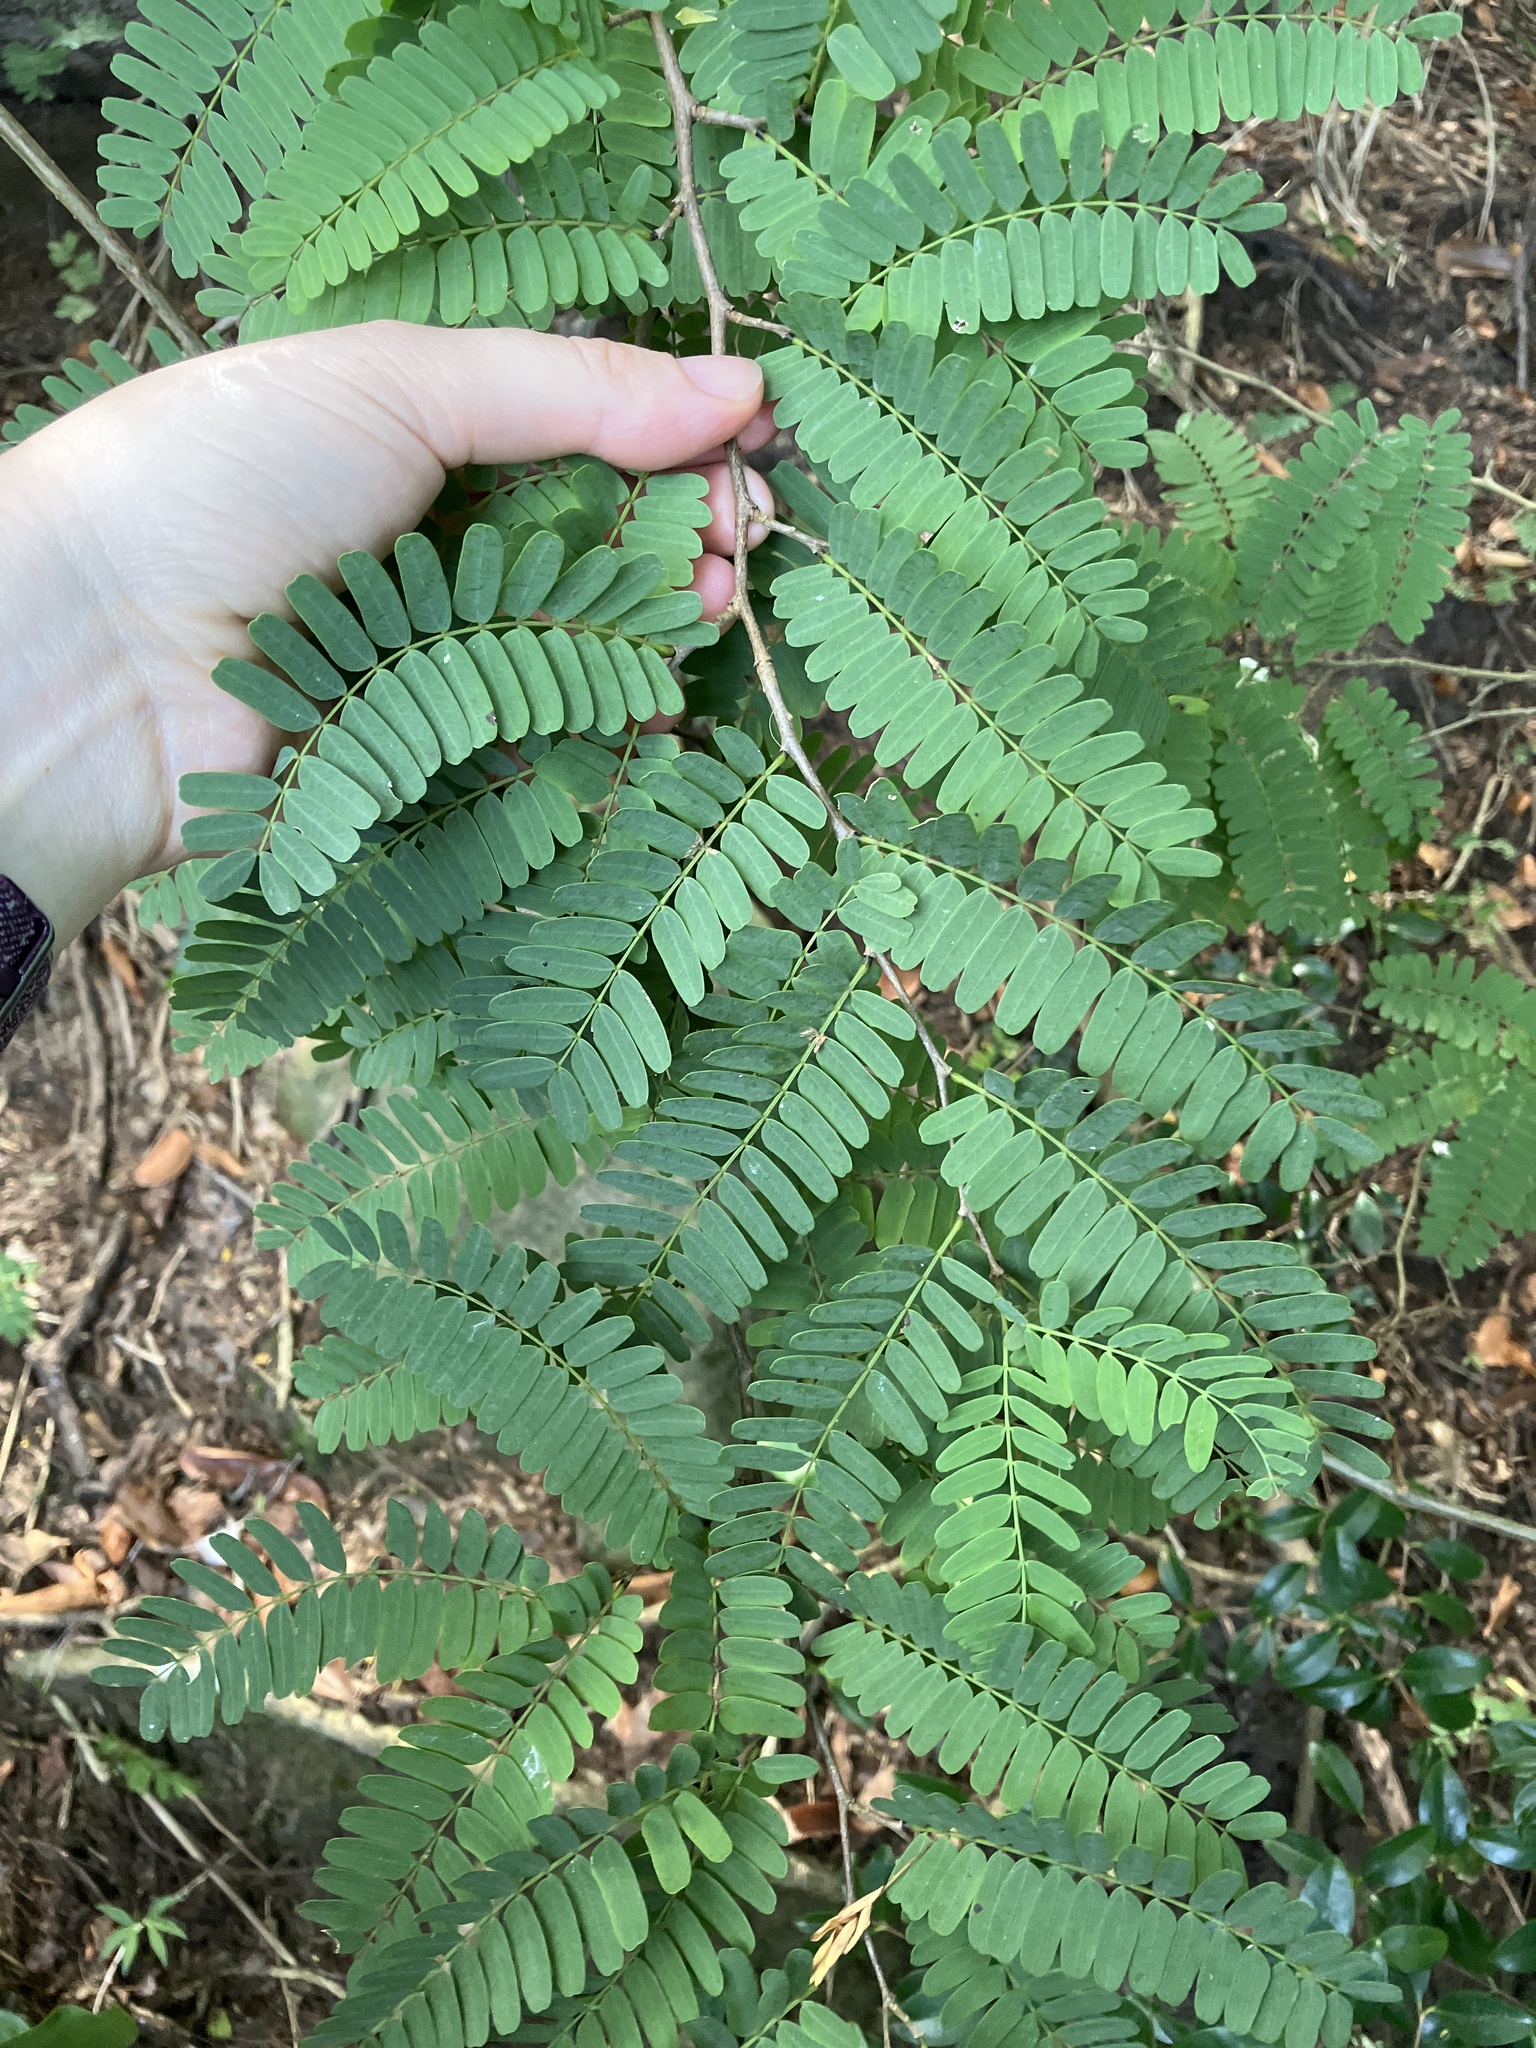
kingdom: Plantae
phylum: Tracheophyta
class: Magnoliopsida
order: Fabales
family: Fabaceae
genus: Tamarindus
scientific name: Tamarindus indica
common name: Tamarind
